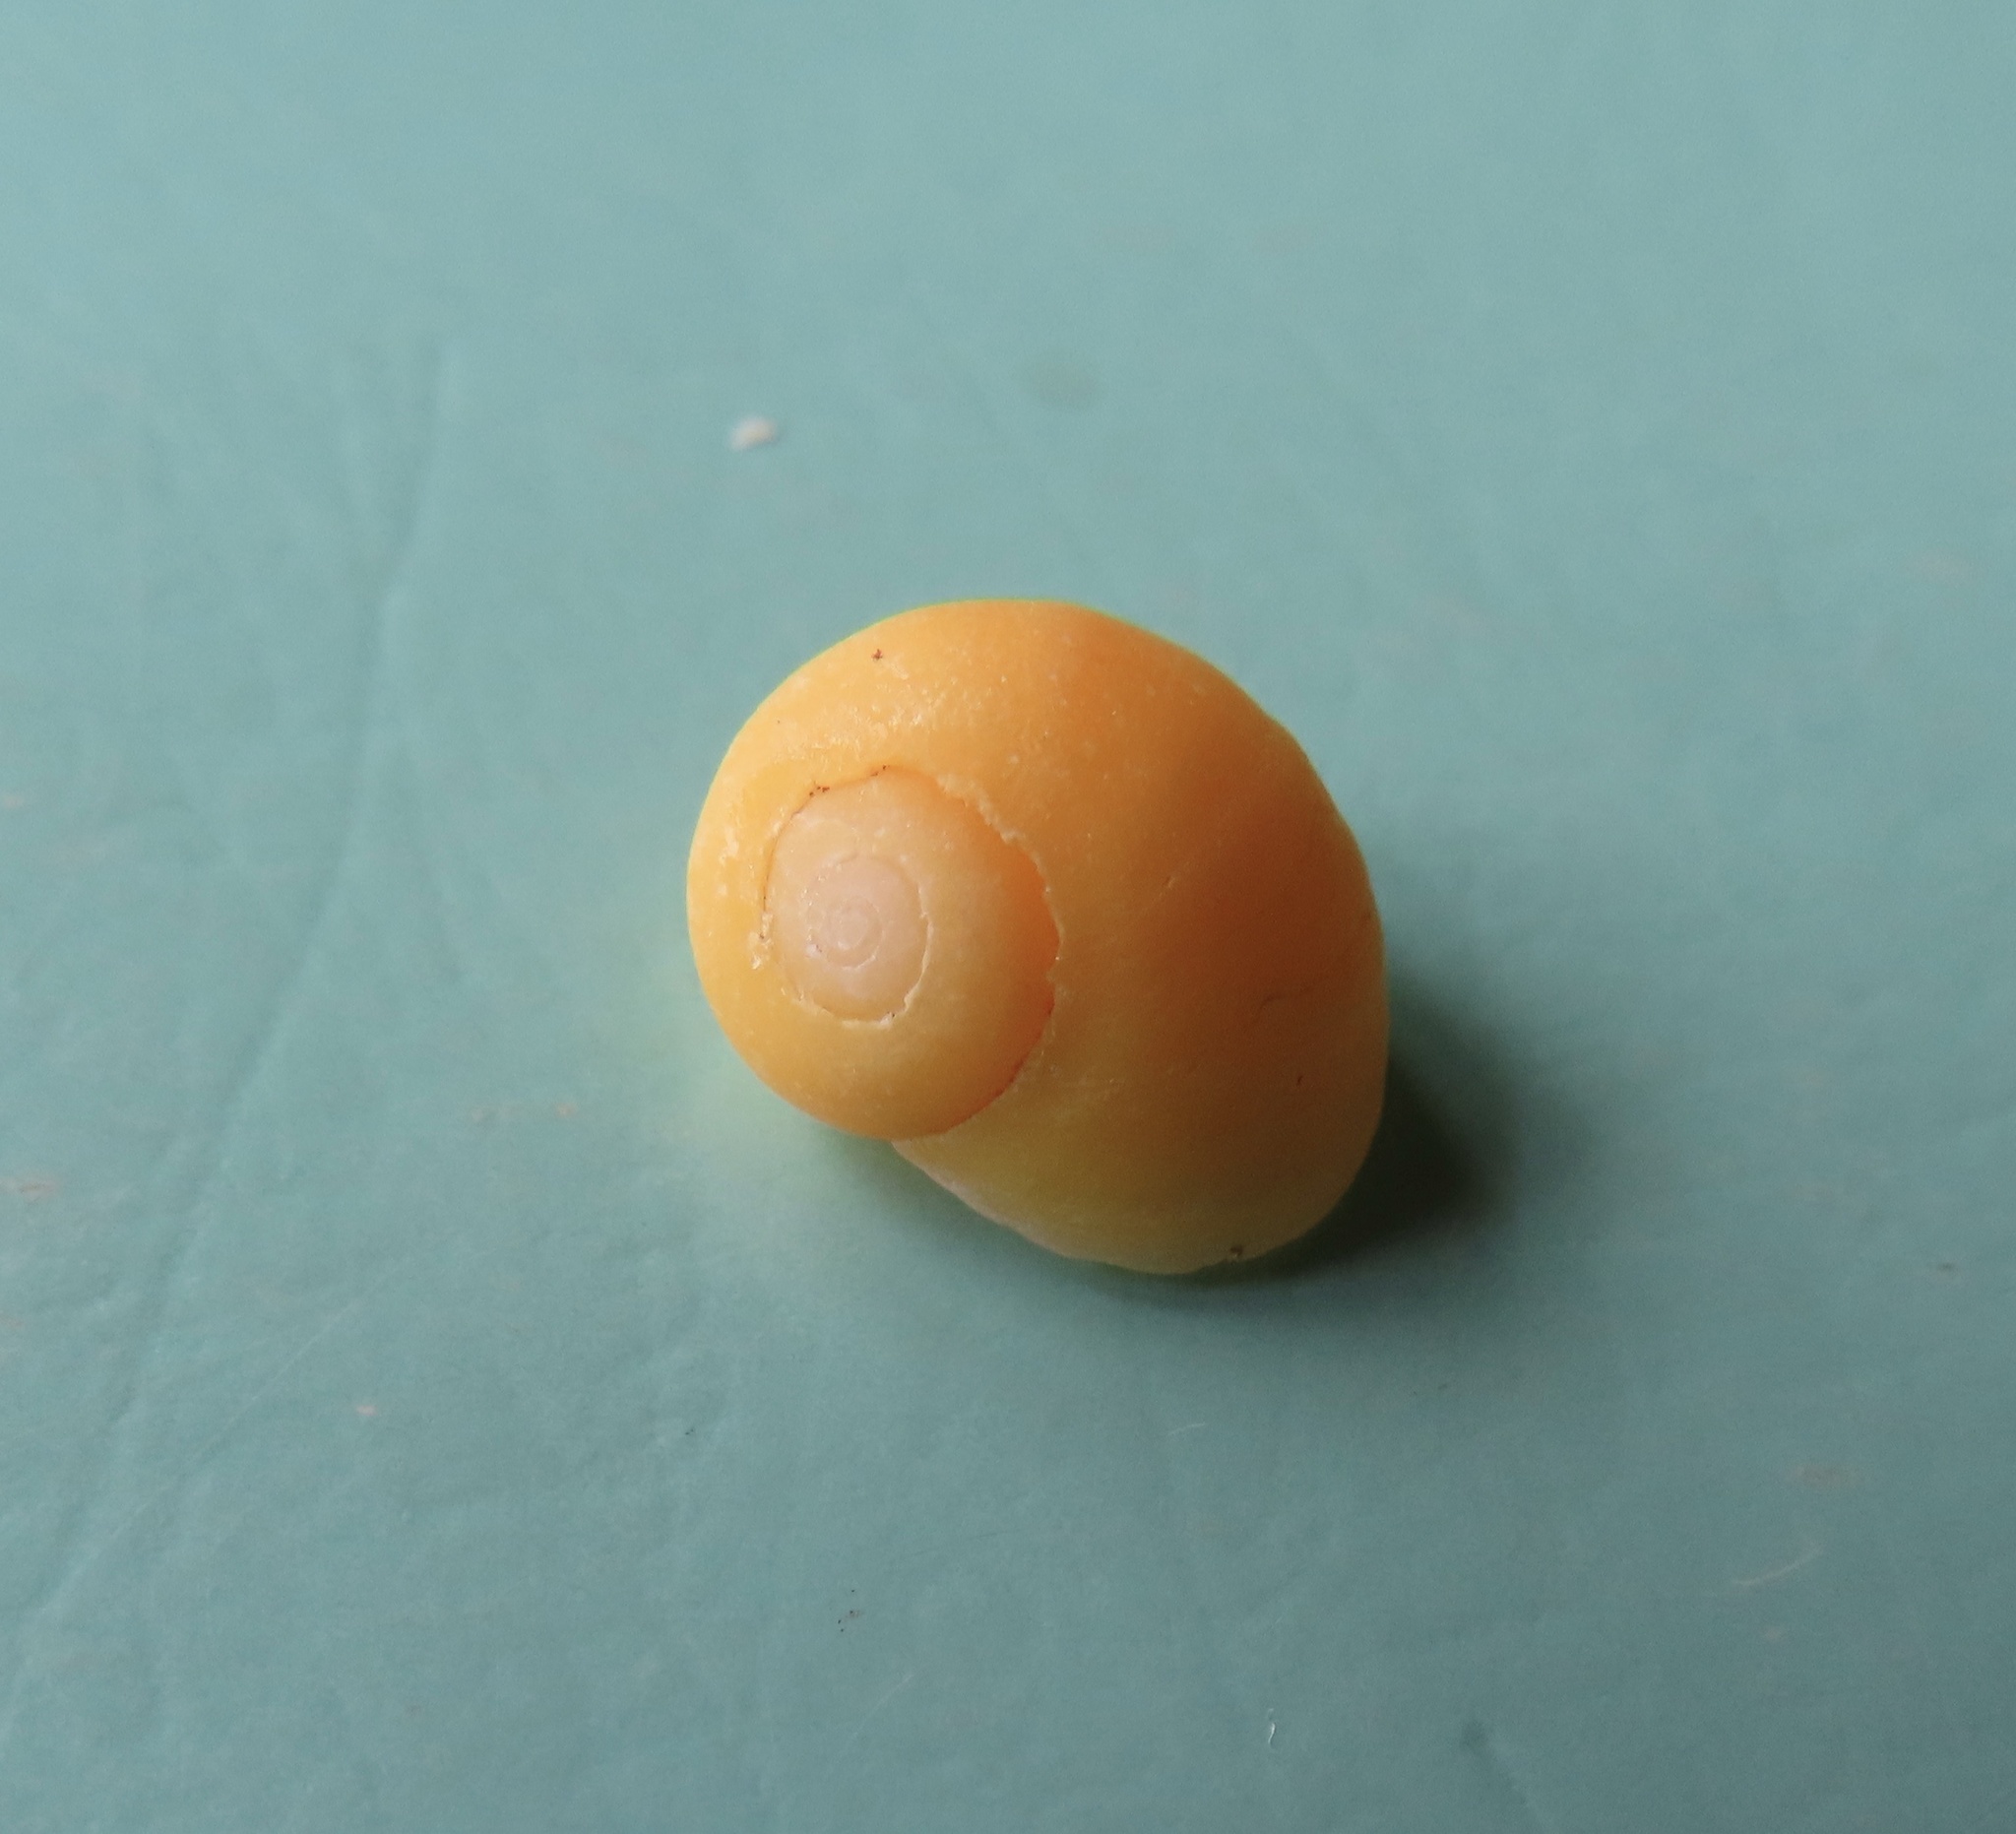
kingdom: Animalia
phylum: Mollusca
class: Gastropoda
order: Littorinimorpha
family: Littorinidae
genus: Littorina
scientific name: Littorina
